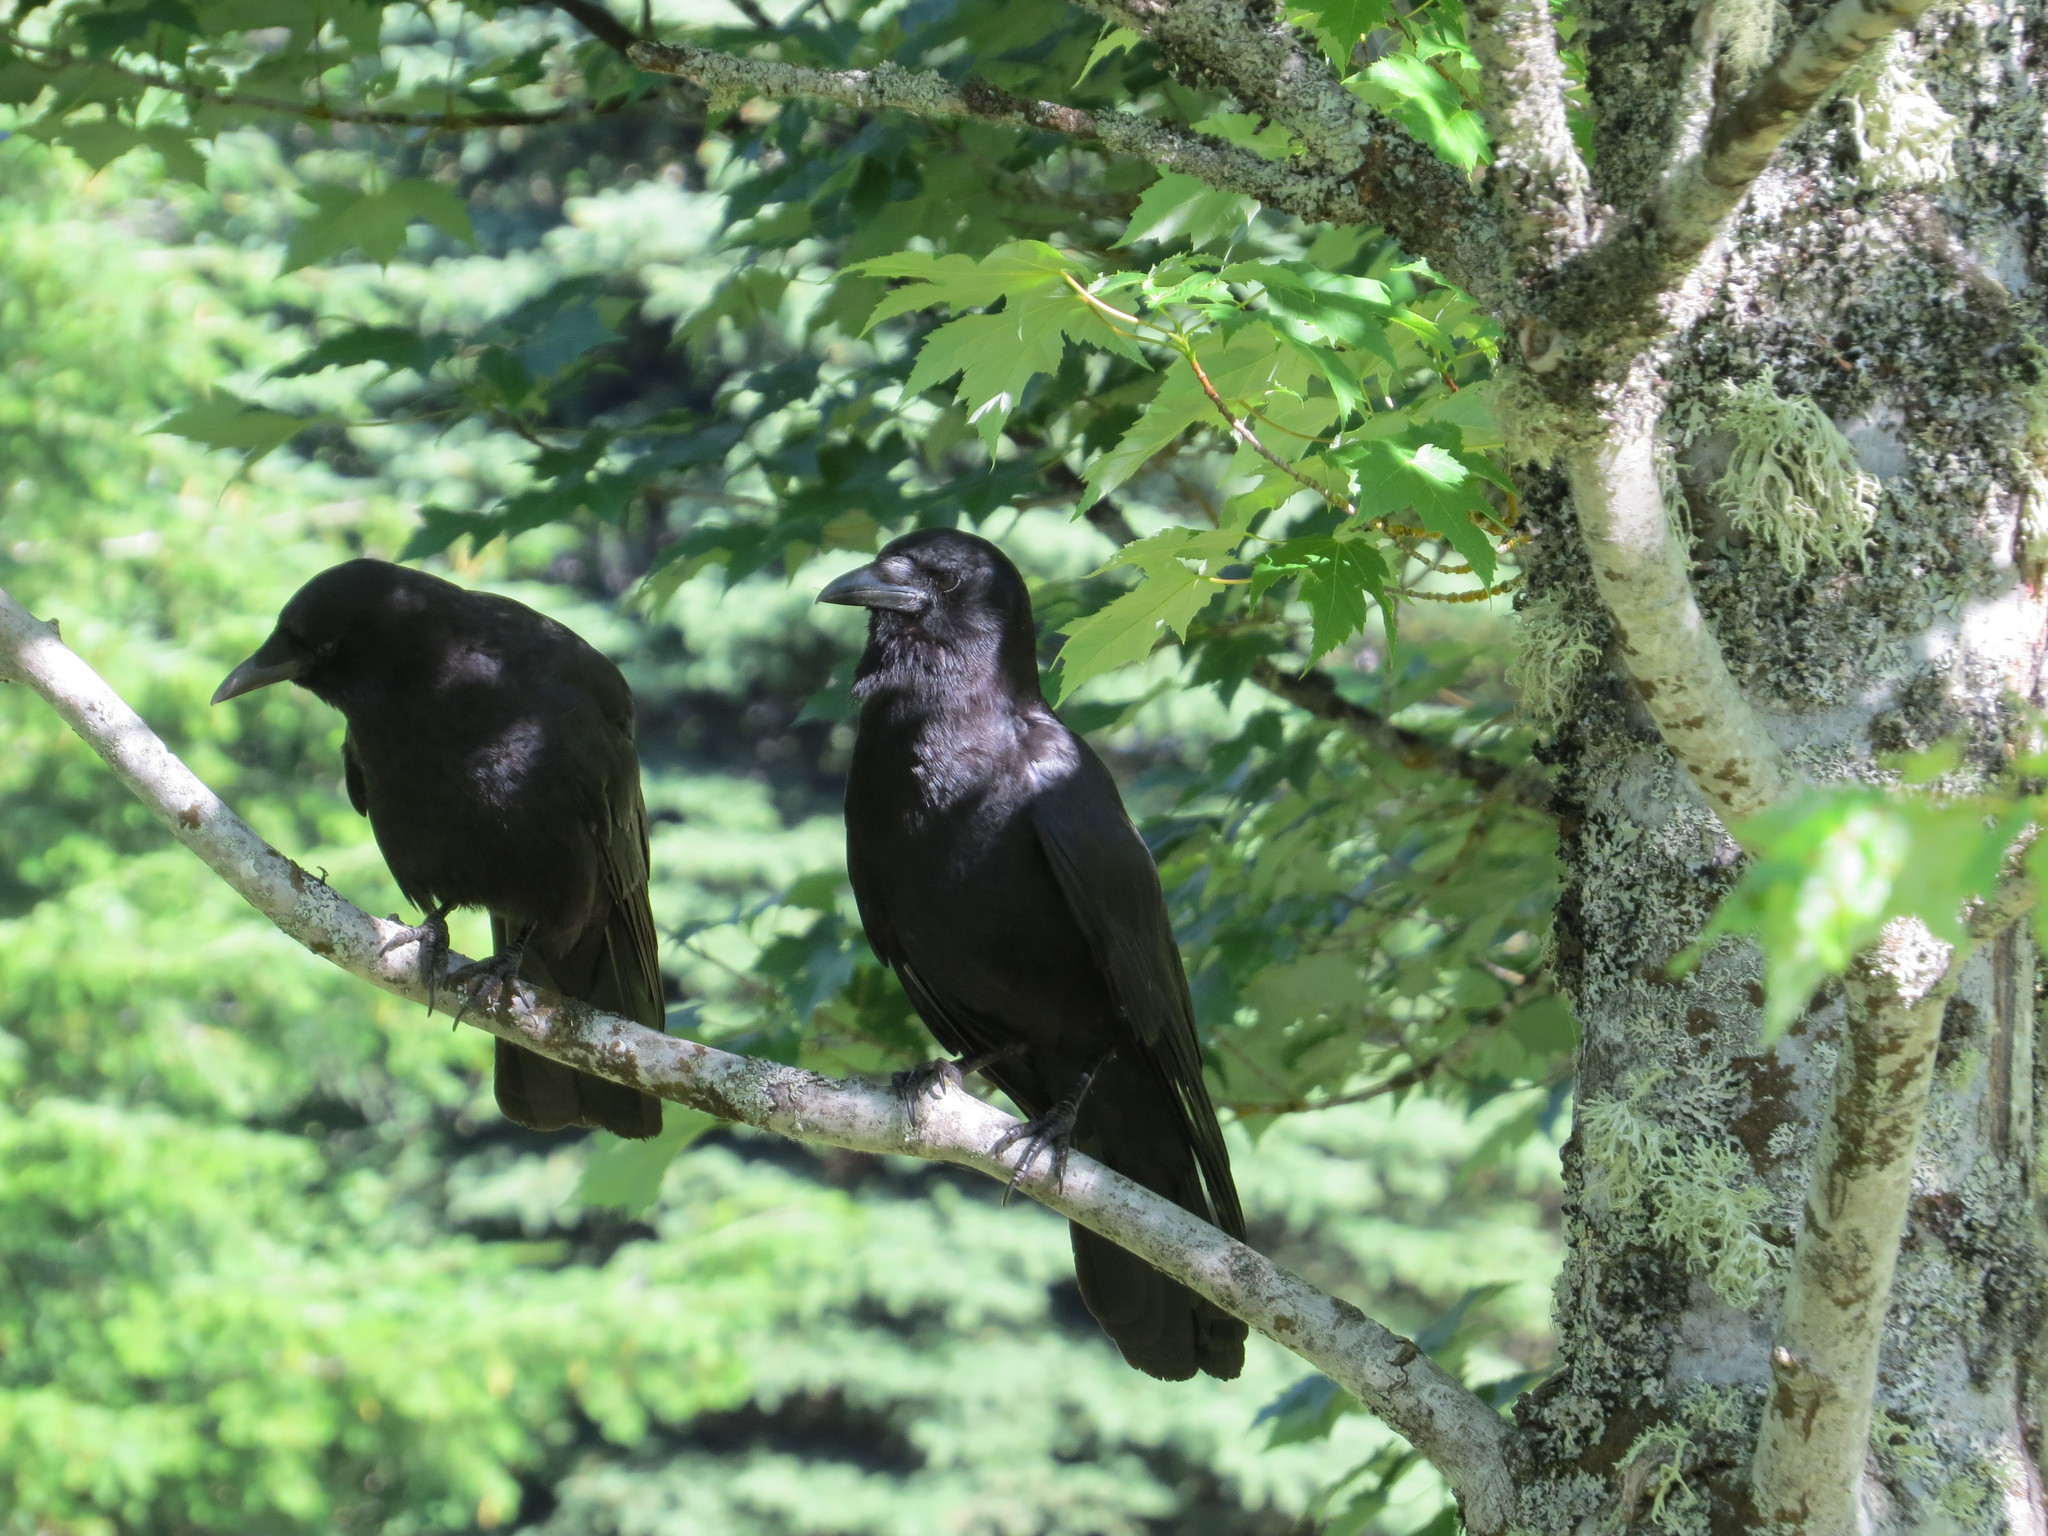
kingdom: Animalia
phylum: Chordata
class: Aves
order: Passeriformes
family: Corvidae
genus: Corvus
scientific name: Corvus brachyrhynchos
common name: American crow
